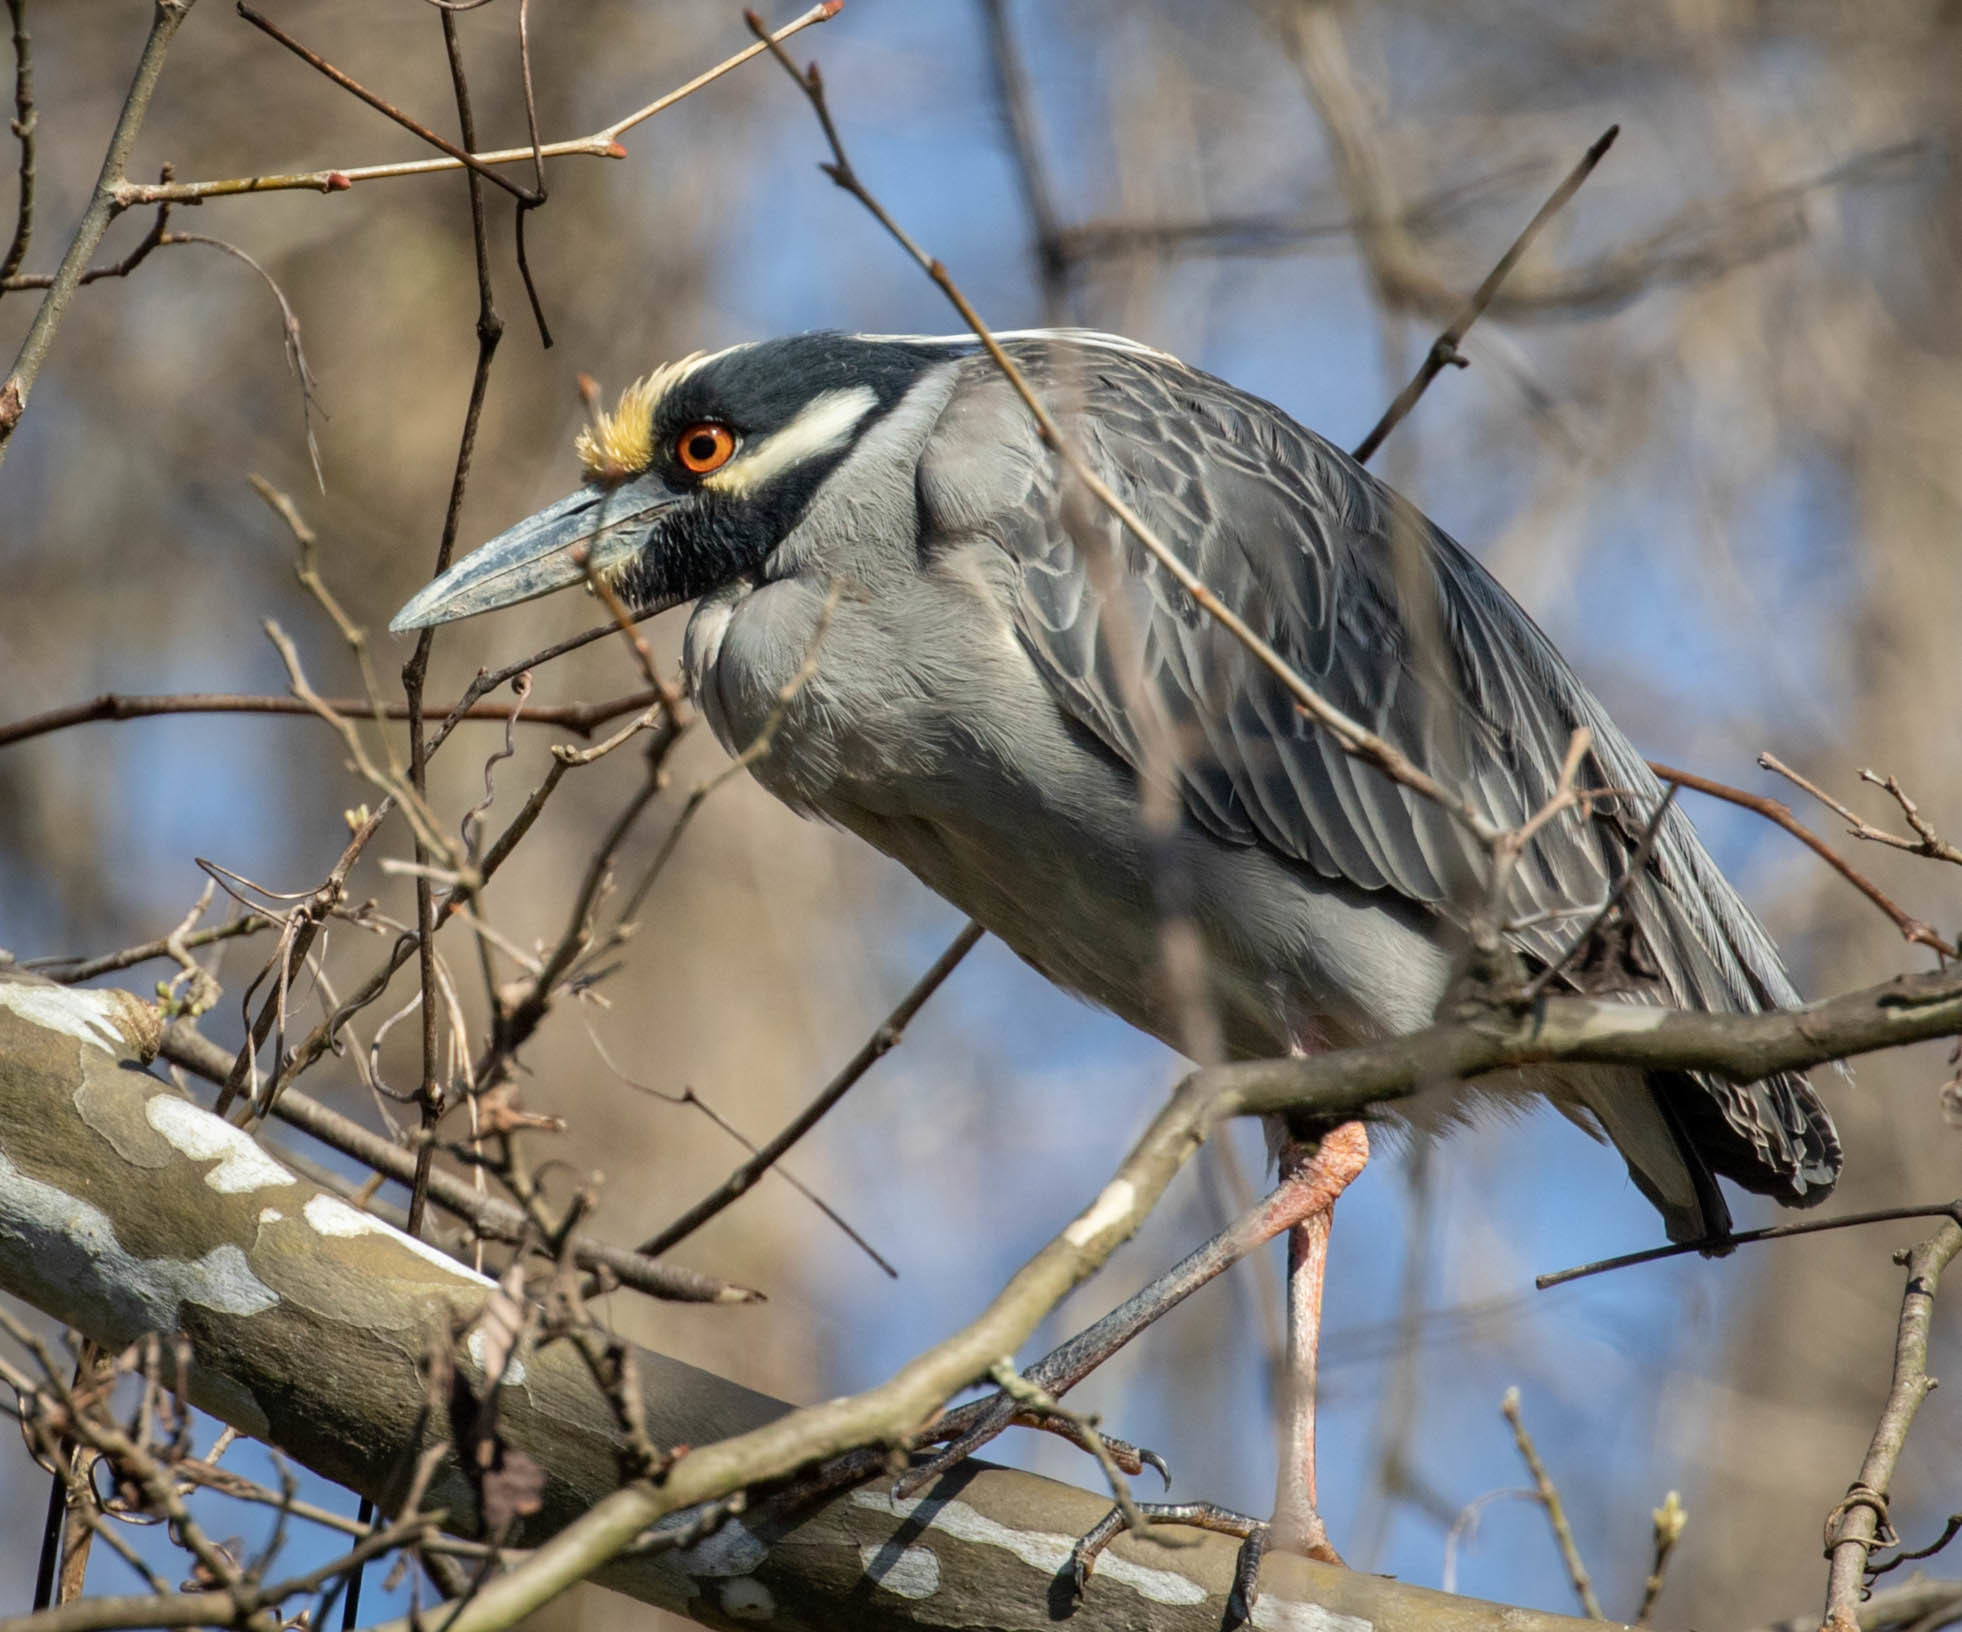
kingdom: Animalia
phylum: Chordata
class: Aves
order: Pelecaniformes
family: Ardeidae
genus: Nyctanassa
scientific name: Nyctanassa violacea
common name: Yellow-crowned night heron
